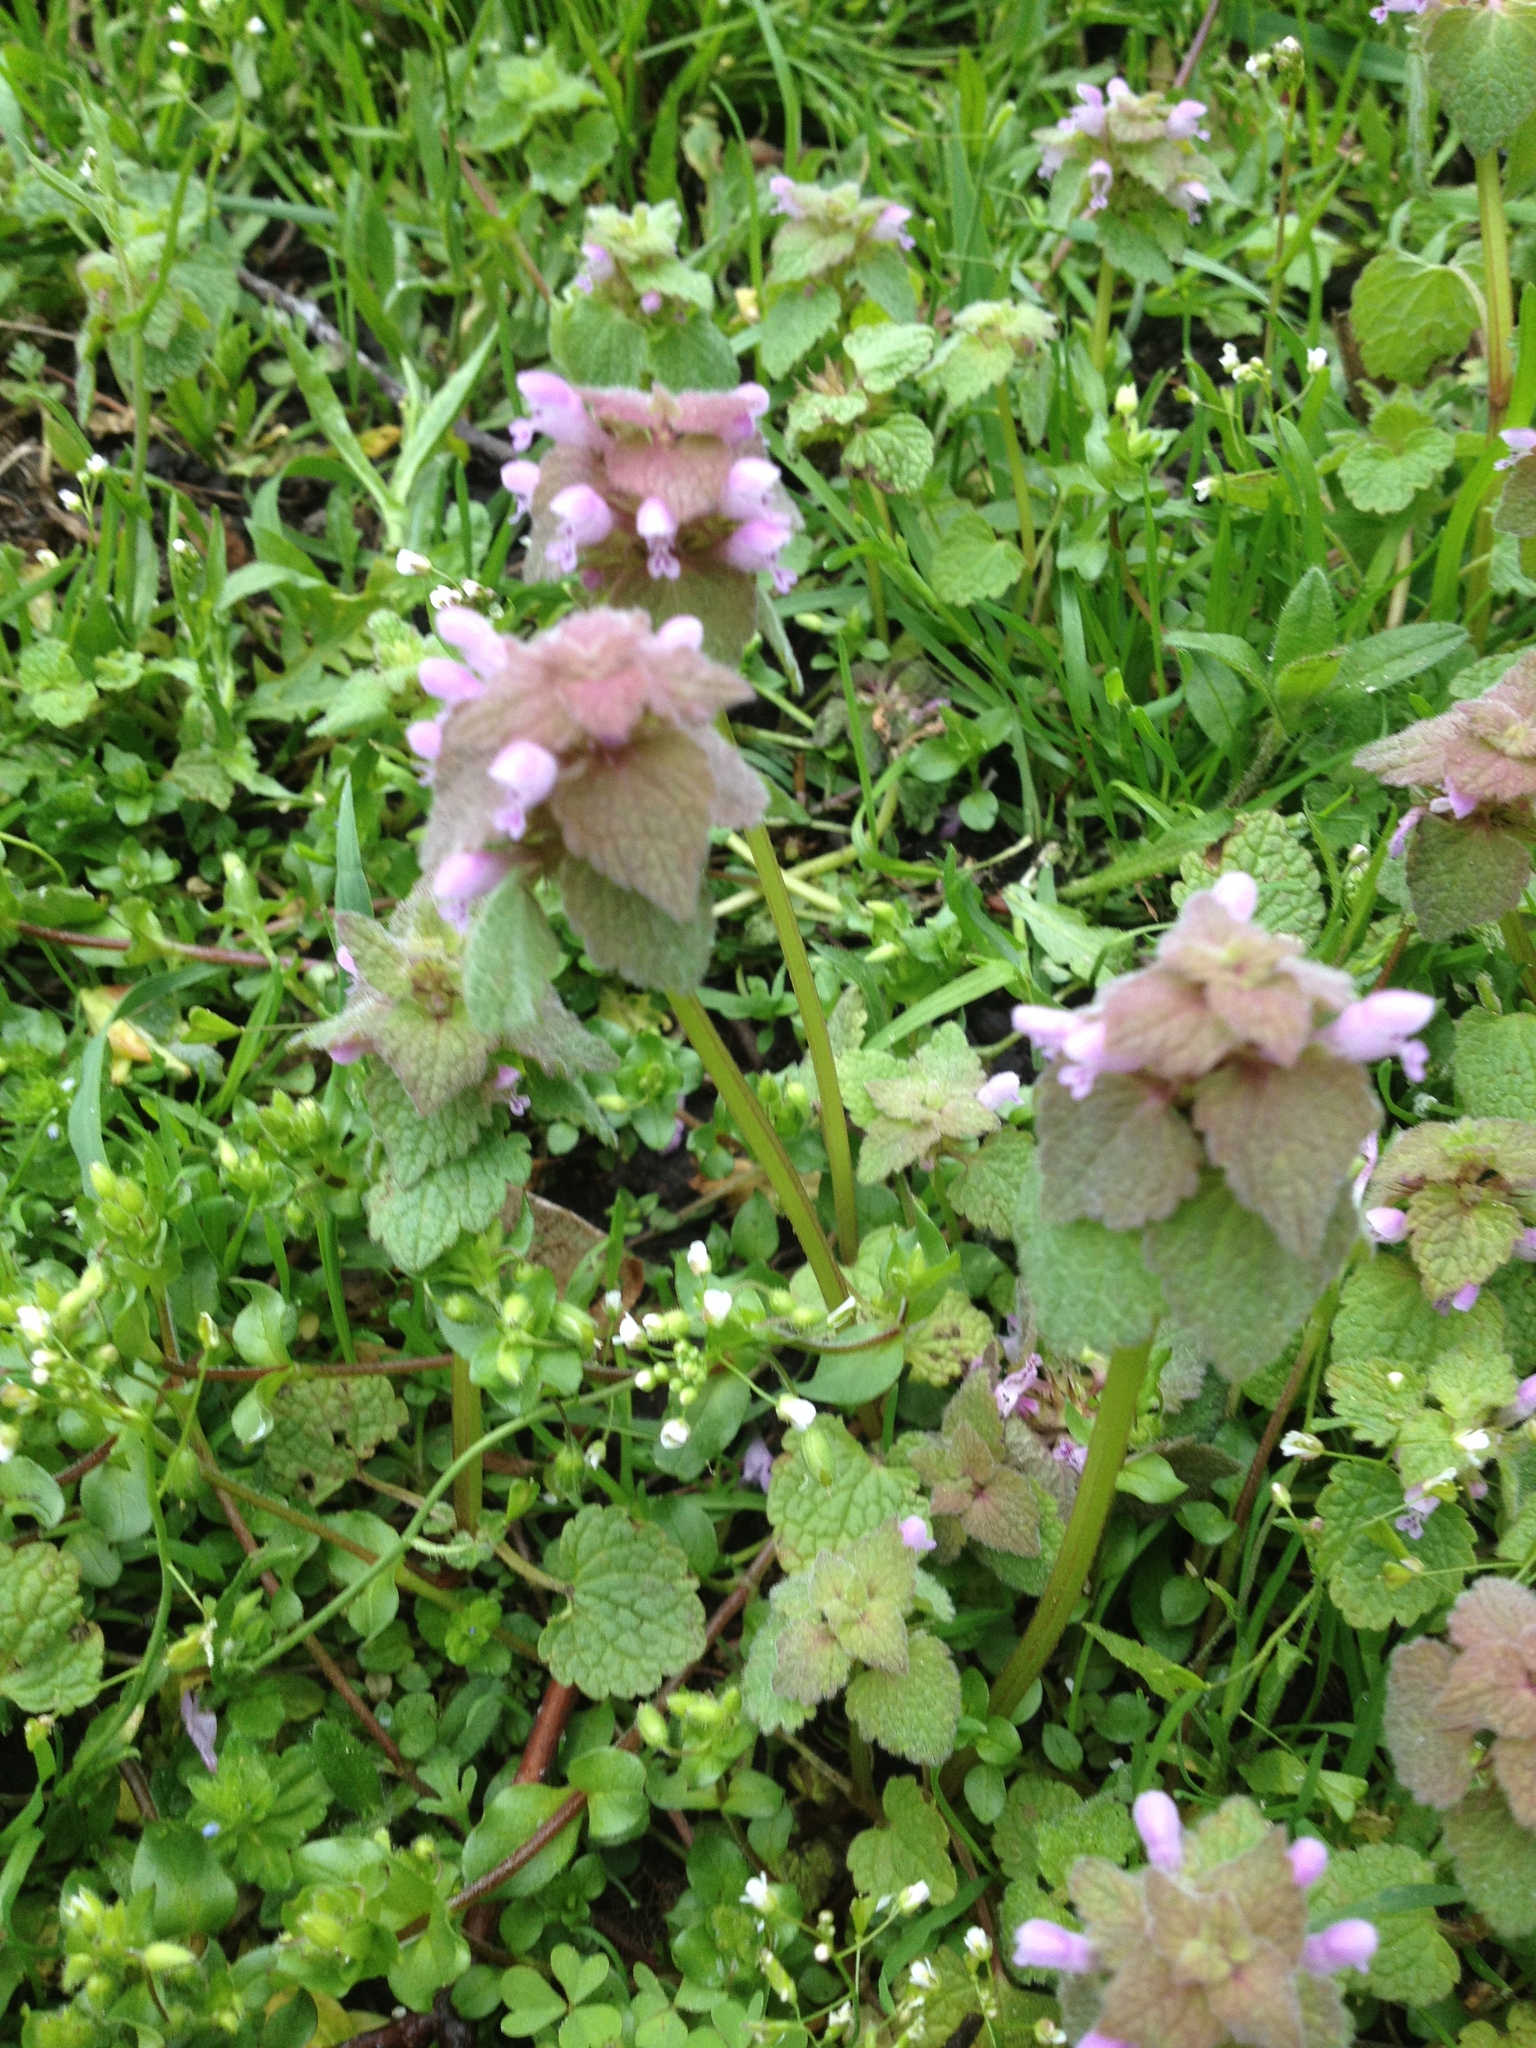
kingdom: Plantae
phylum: Tracheophyta
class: Magnoliopsida
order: Lamiales
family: Lamiaceae
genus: Lamium
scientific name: Lamium purpureum
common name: Red dead-nettle
